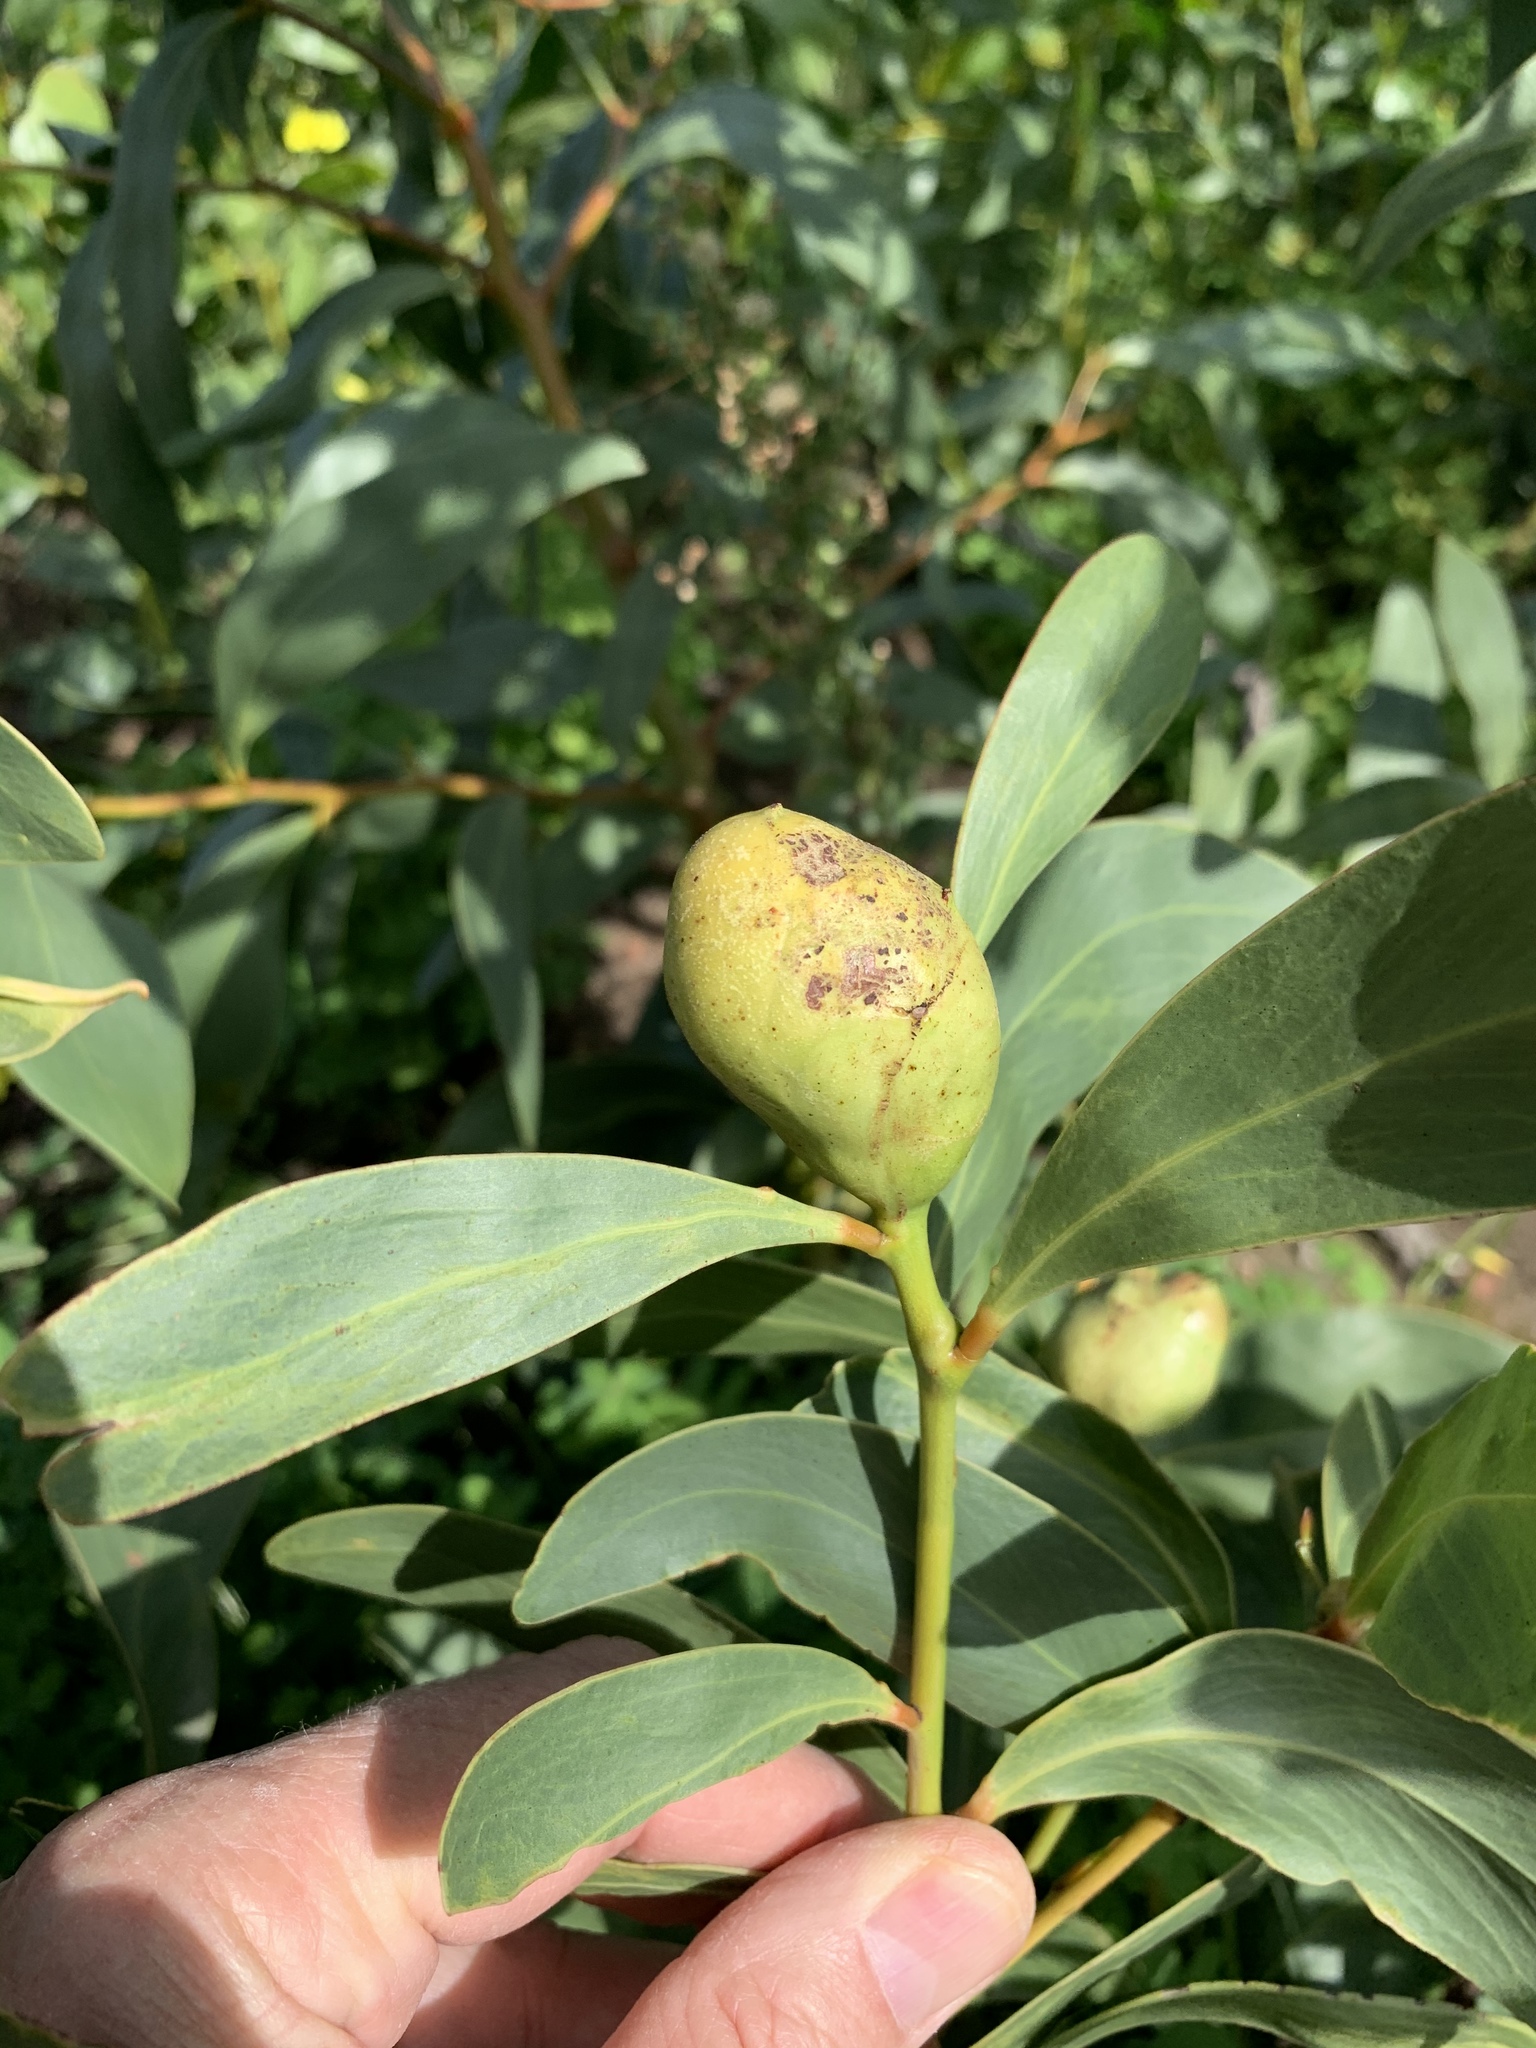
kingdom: Animalia
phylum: Arthropoda
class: Insecta
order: Hymenoptera
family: Pteromalidae
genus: Trichilogaster
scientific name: Trichilogaster signiventris
